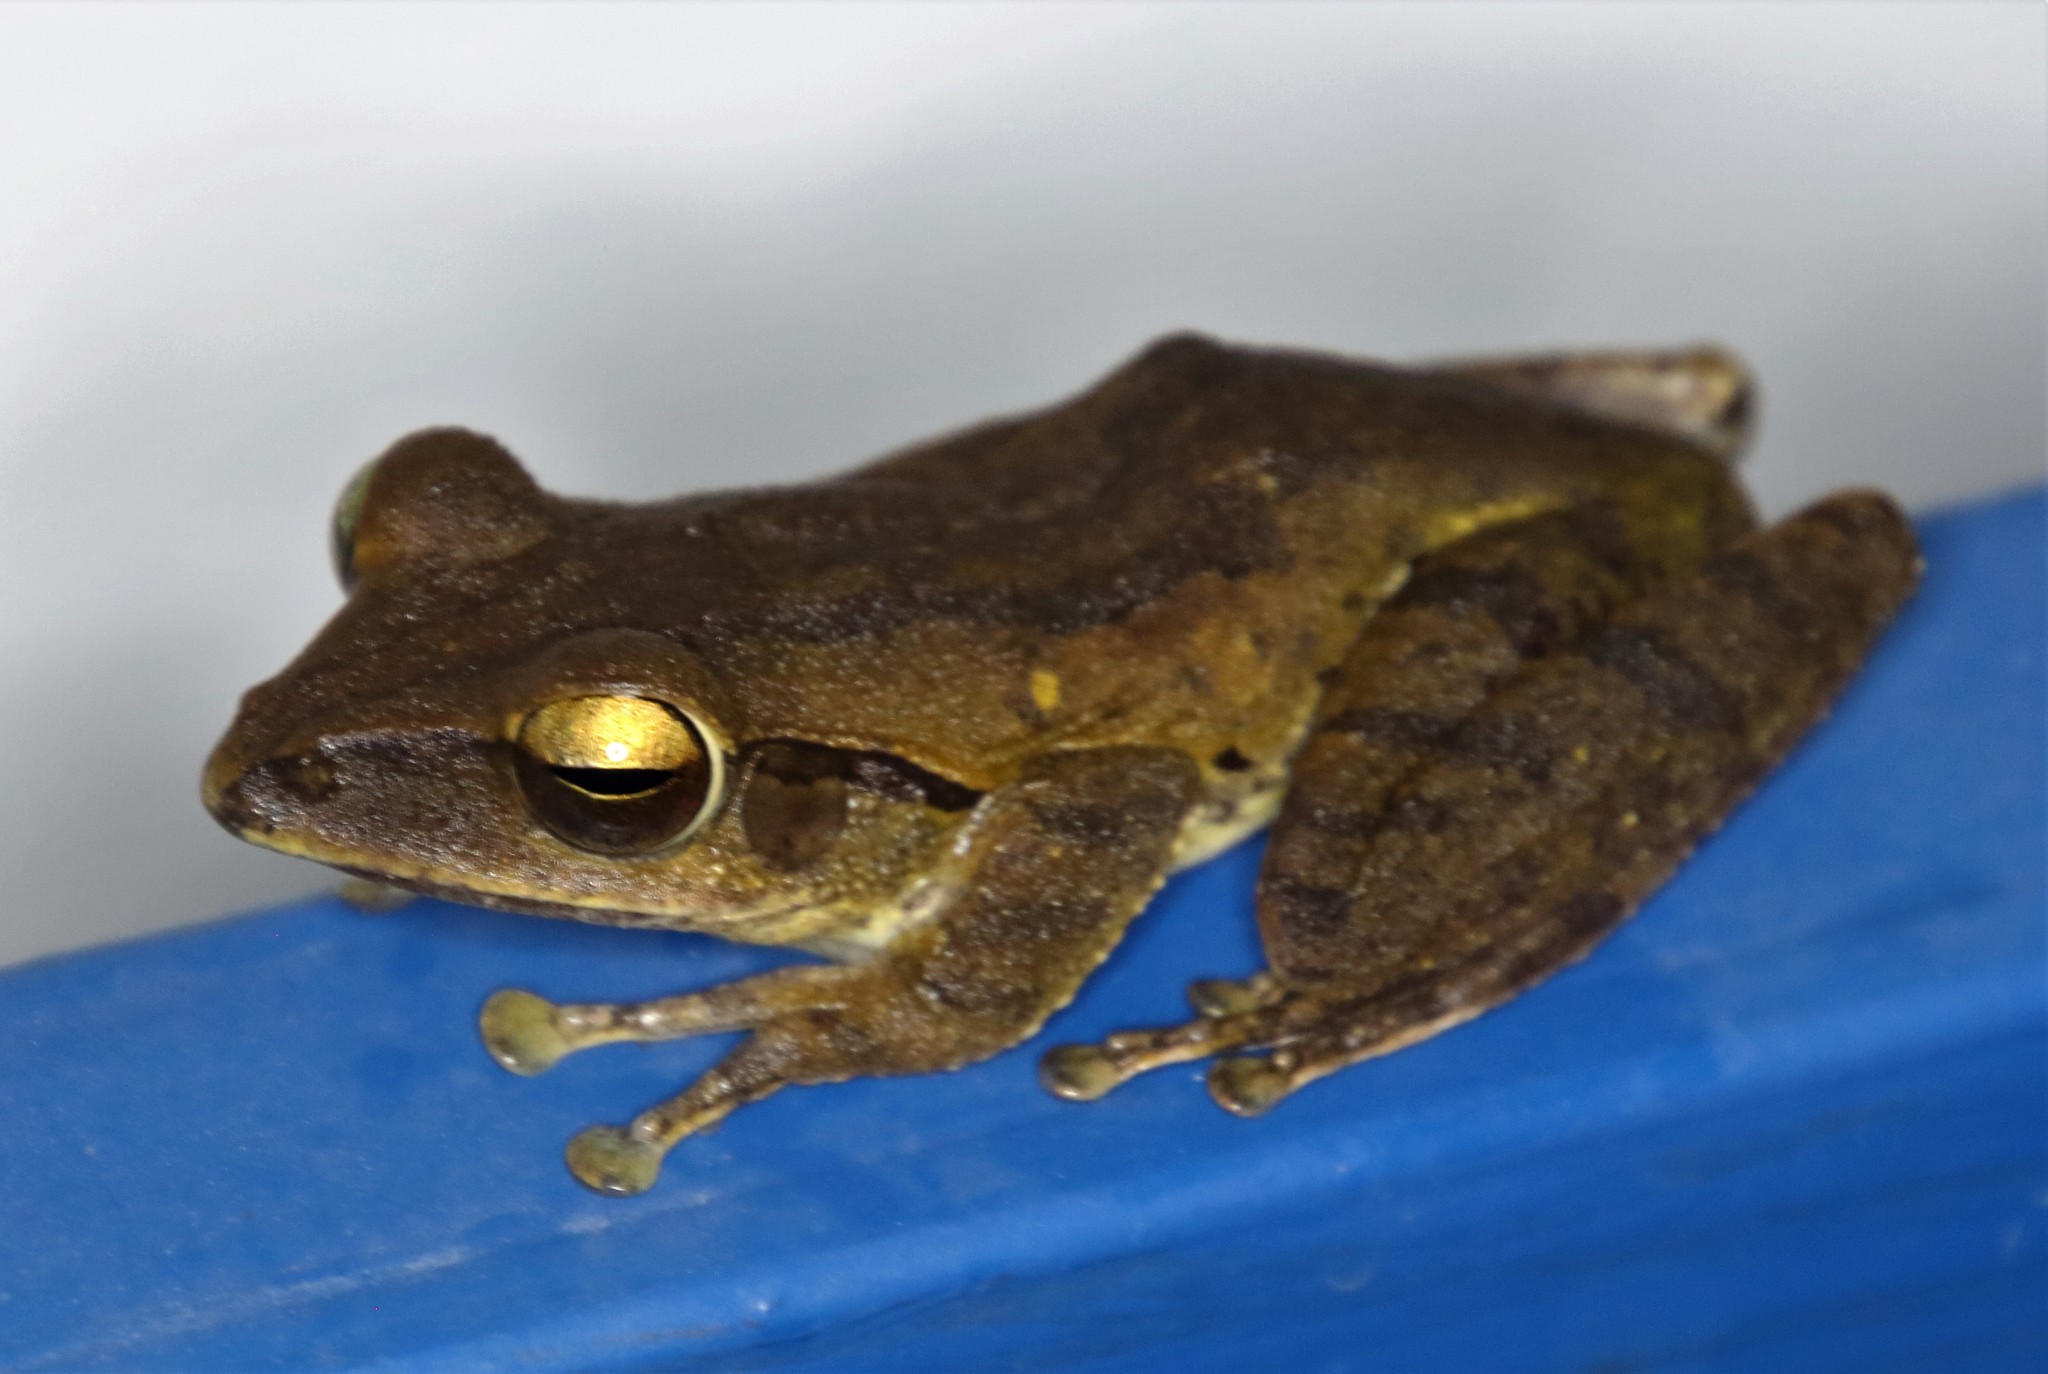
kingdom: Animalia
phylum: Chordata
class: Amphibia
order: Anura
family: Rhacophoridae
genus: Polypedates
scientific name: Polypedates megacephalus
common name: Hong kong whipping frog
